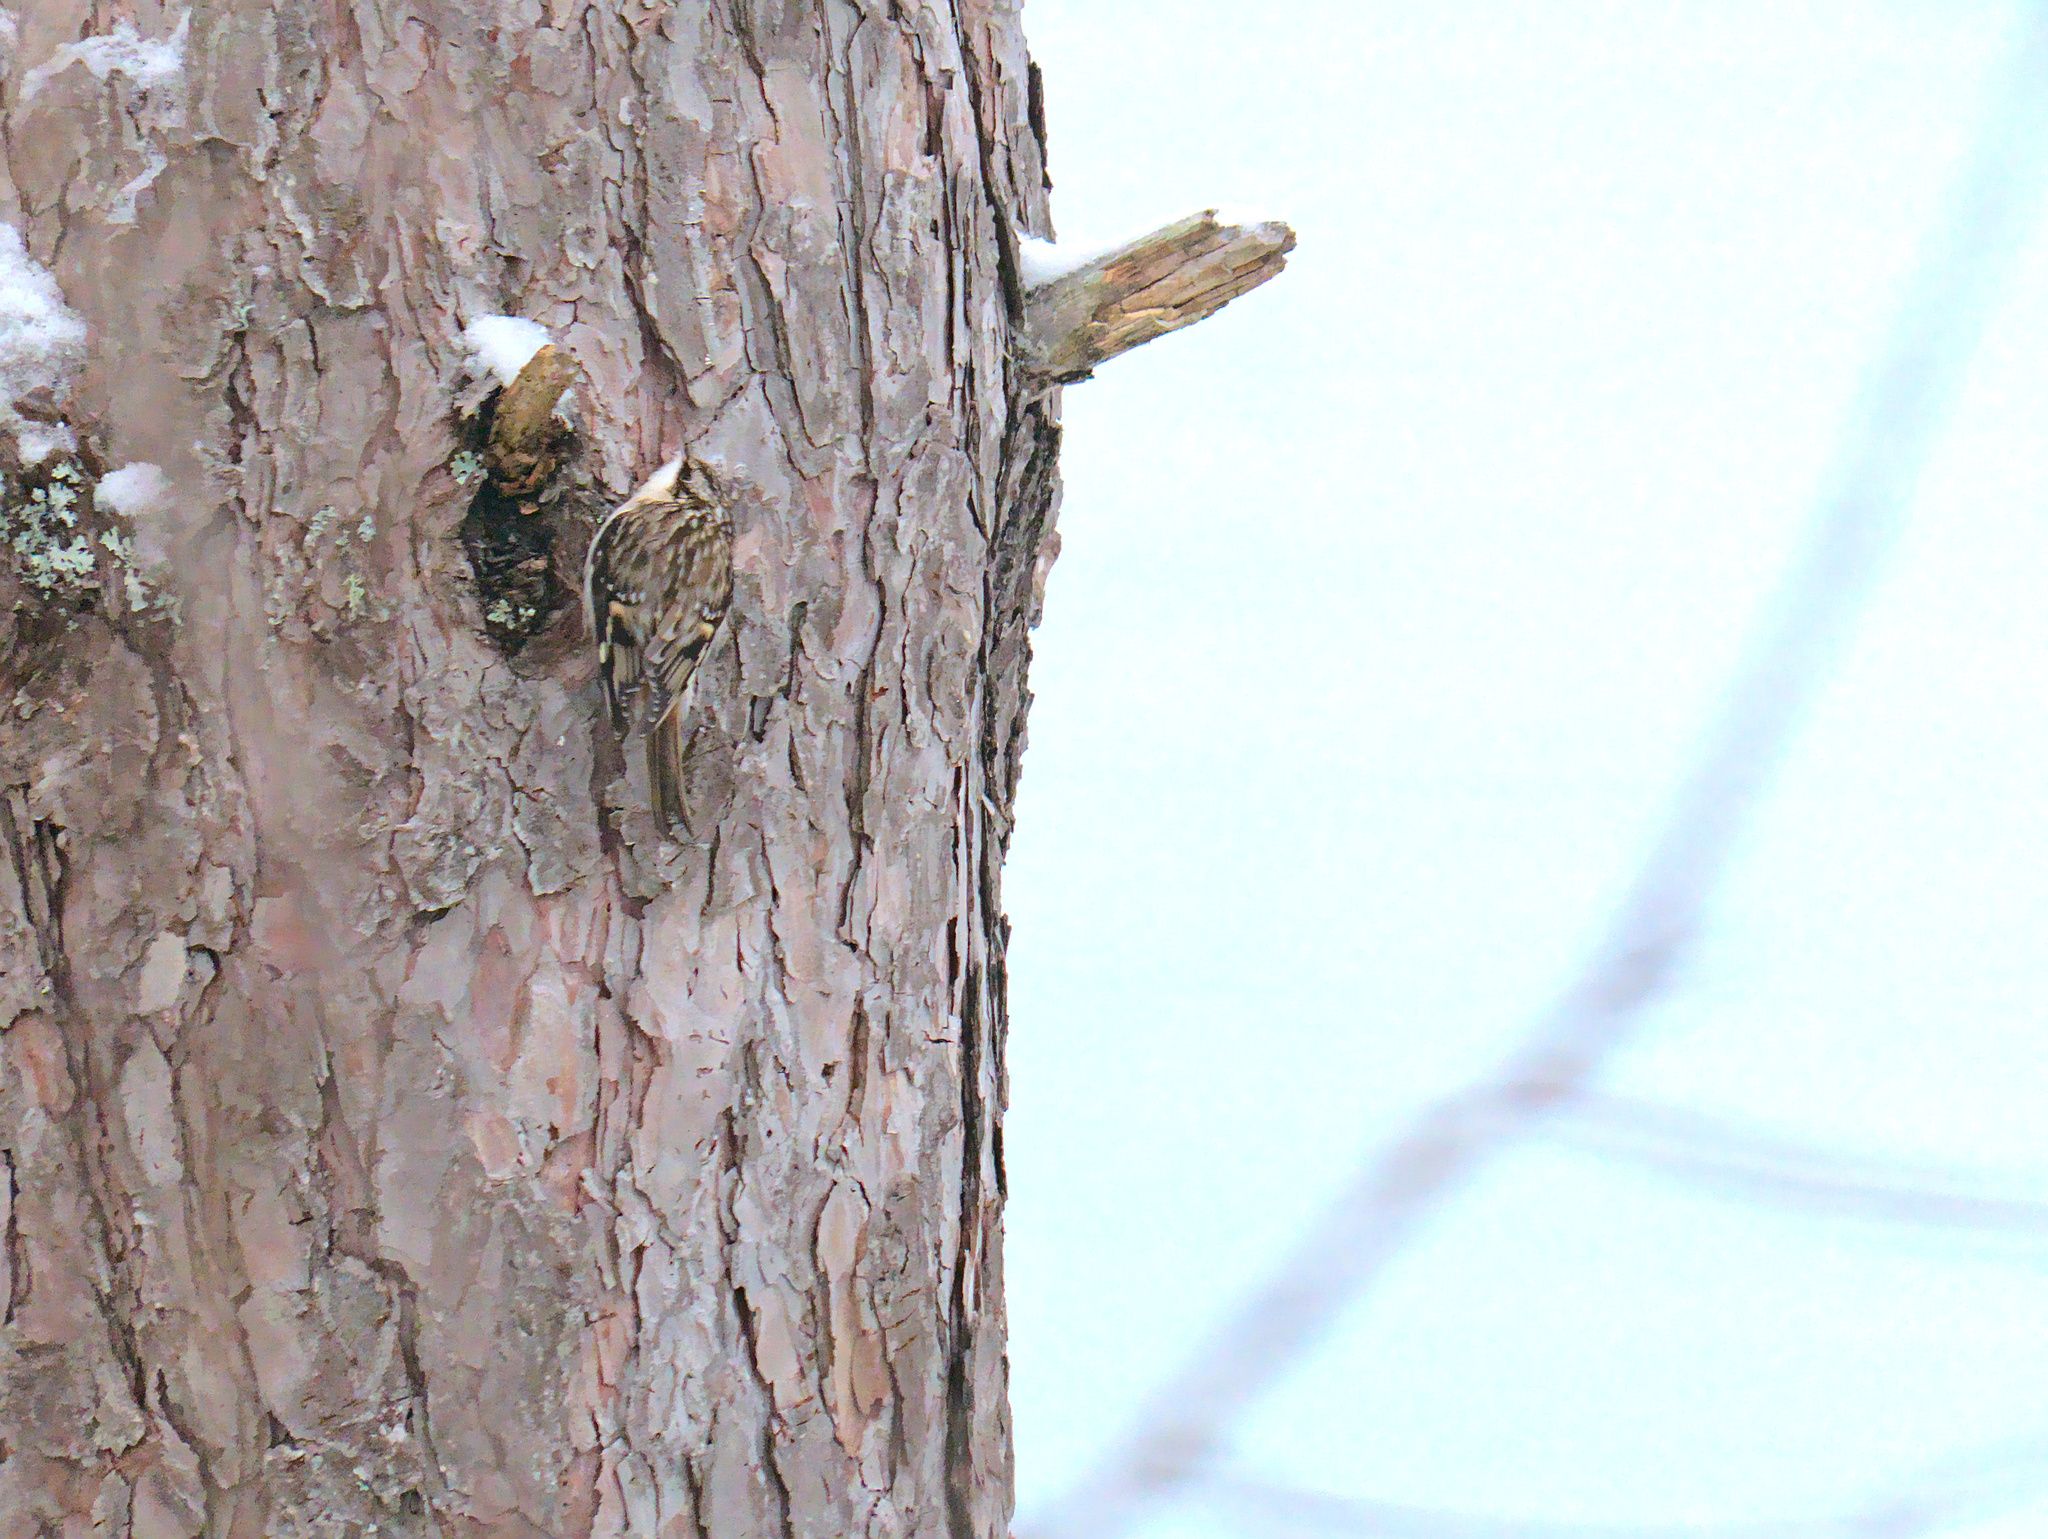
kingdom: Animalia
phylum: Chordata
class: Aves
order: Passeriformes
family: Certhiidae
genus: Certhia
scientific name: Certhia americana
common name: Brown creeper
